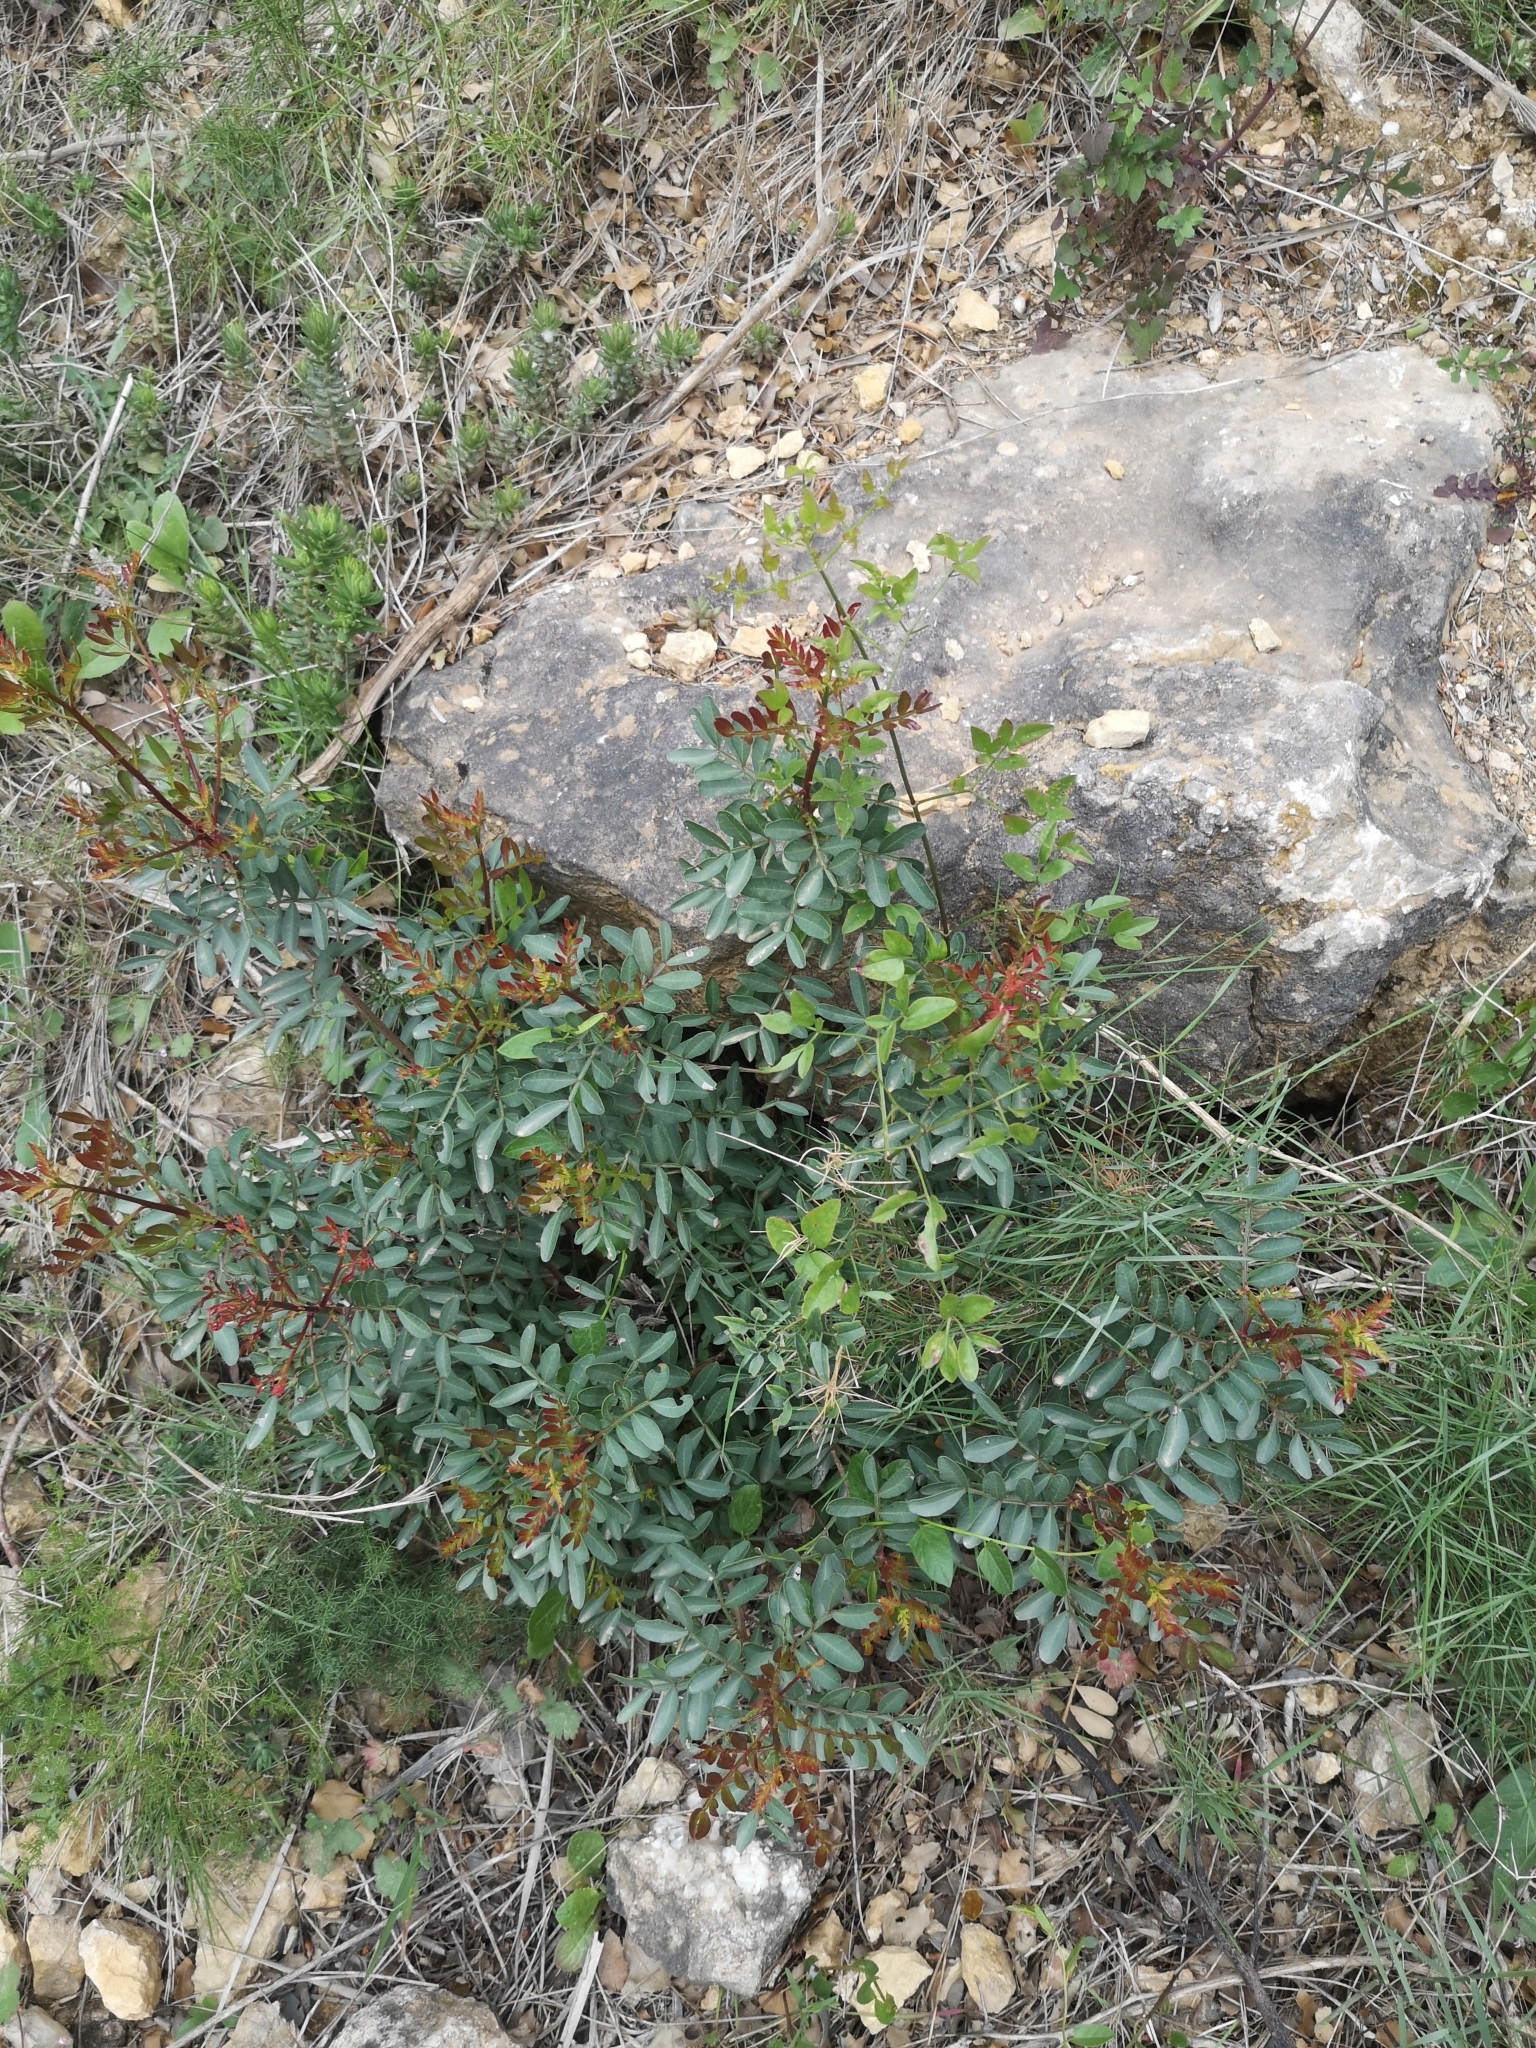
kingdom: Plantae
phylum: Tracheophyta
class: Magnoliopsida
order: Sapindales
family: Anacardiaceae
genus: Pistacia
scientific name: Pistacia lentiscus
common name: Lentisk
